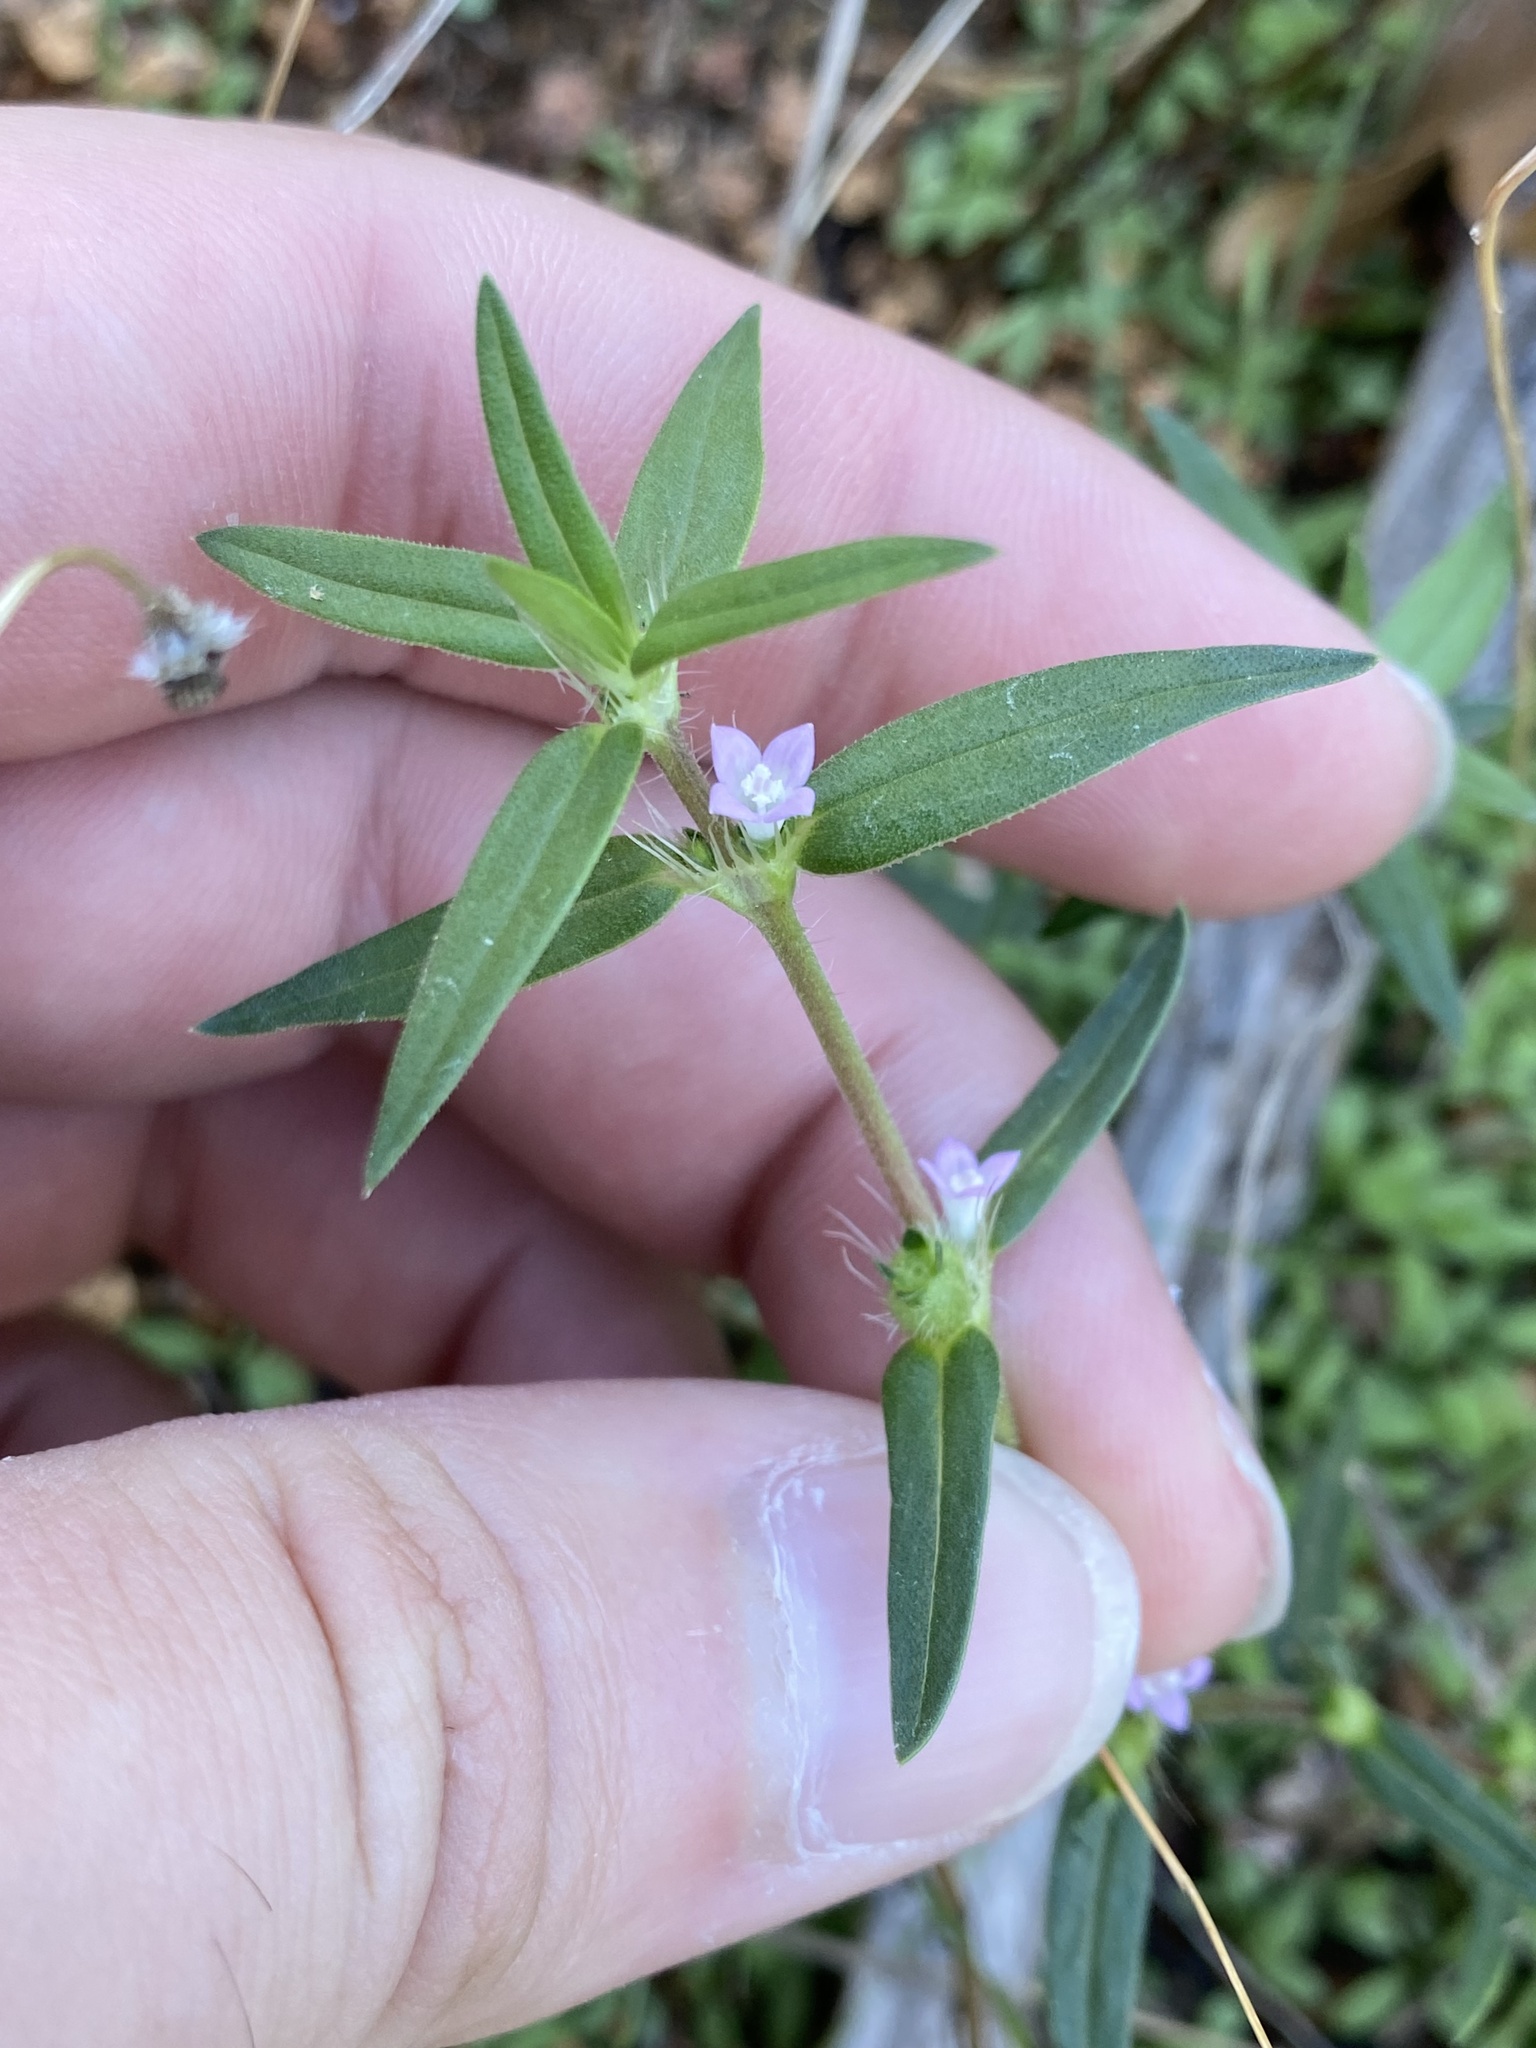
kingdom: Plantae
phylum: Tracheophyta
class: Magnoliopsida
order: Gentianales
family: Rubiaceae
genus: Hexasepalum
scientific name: Hexasepalum teres
